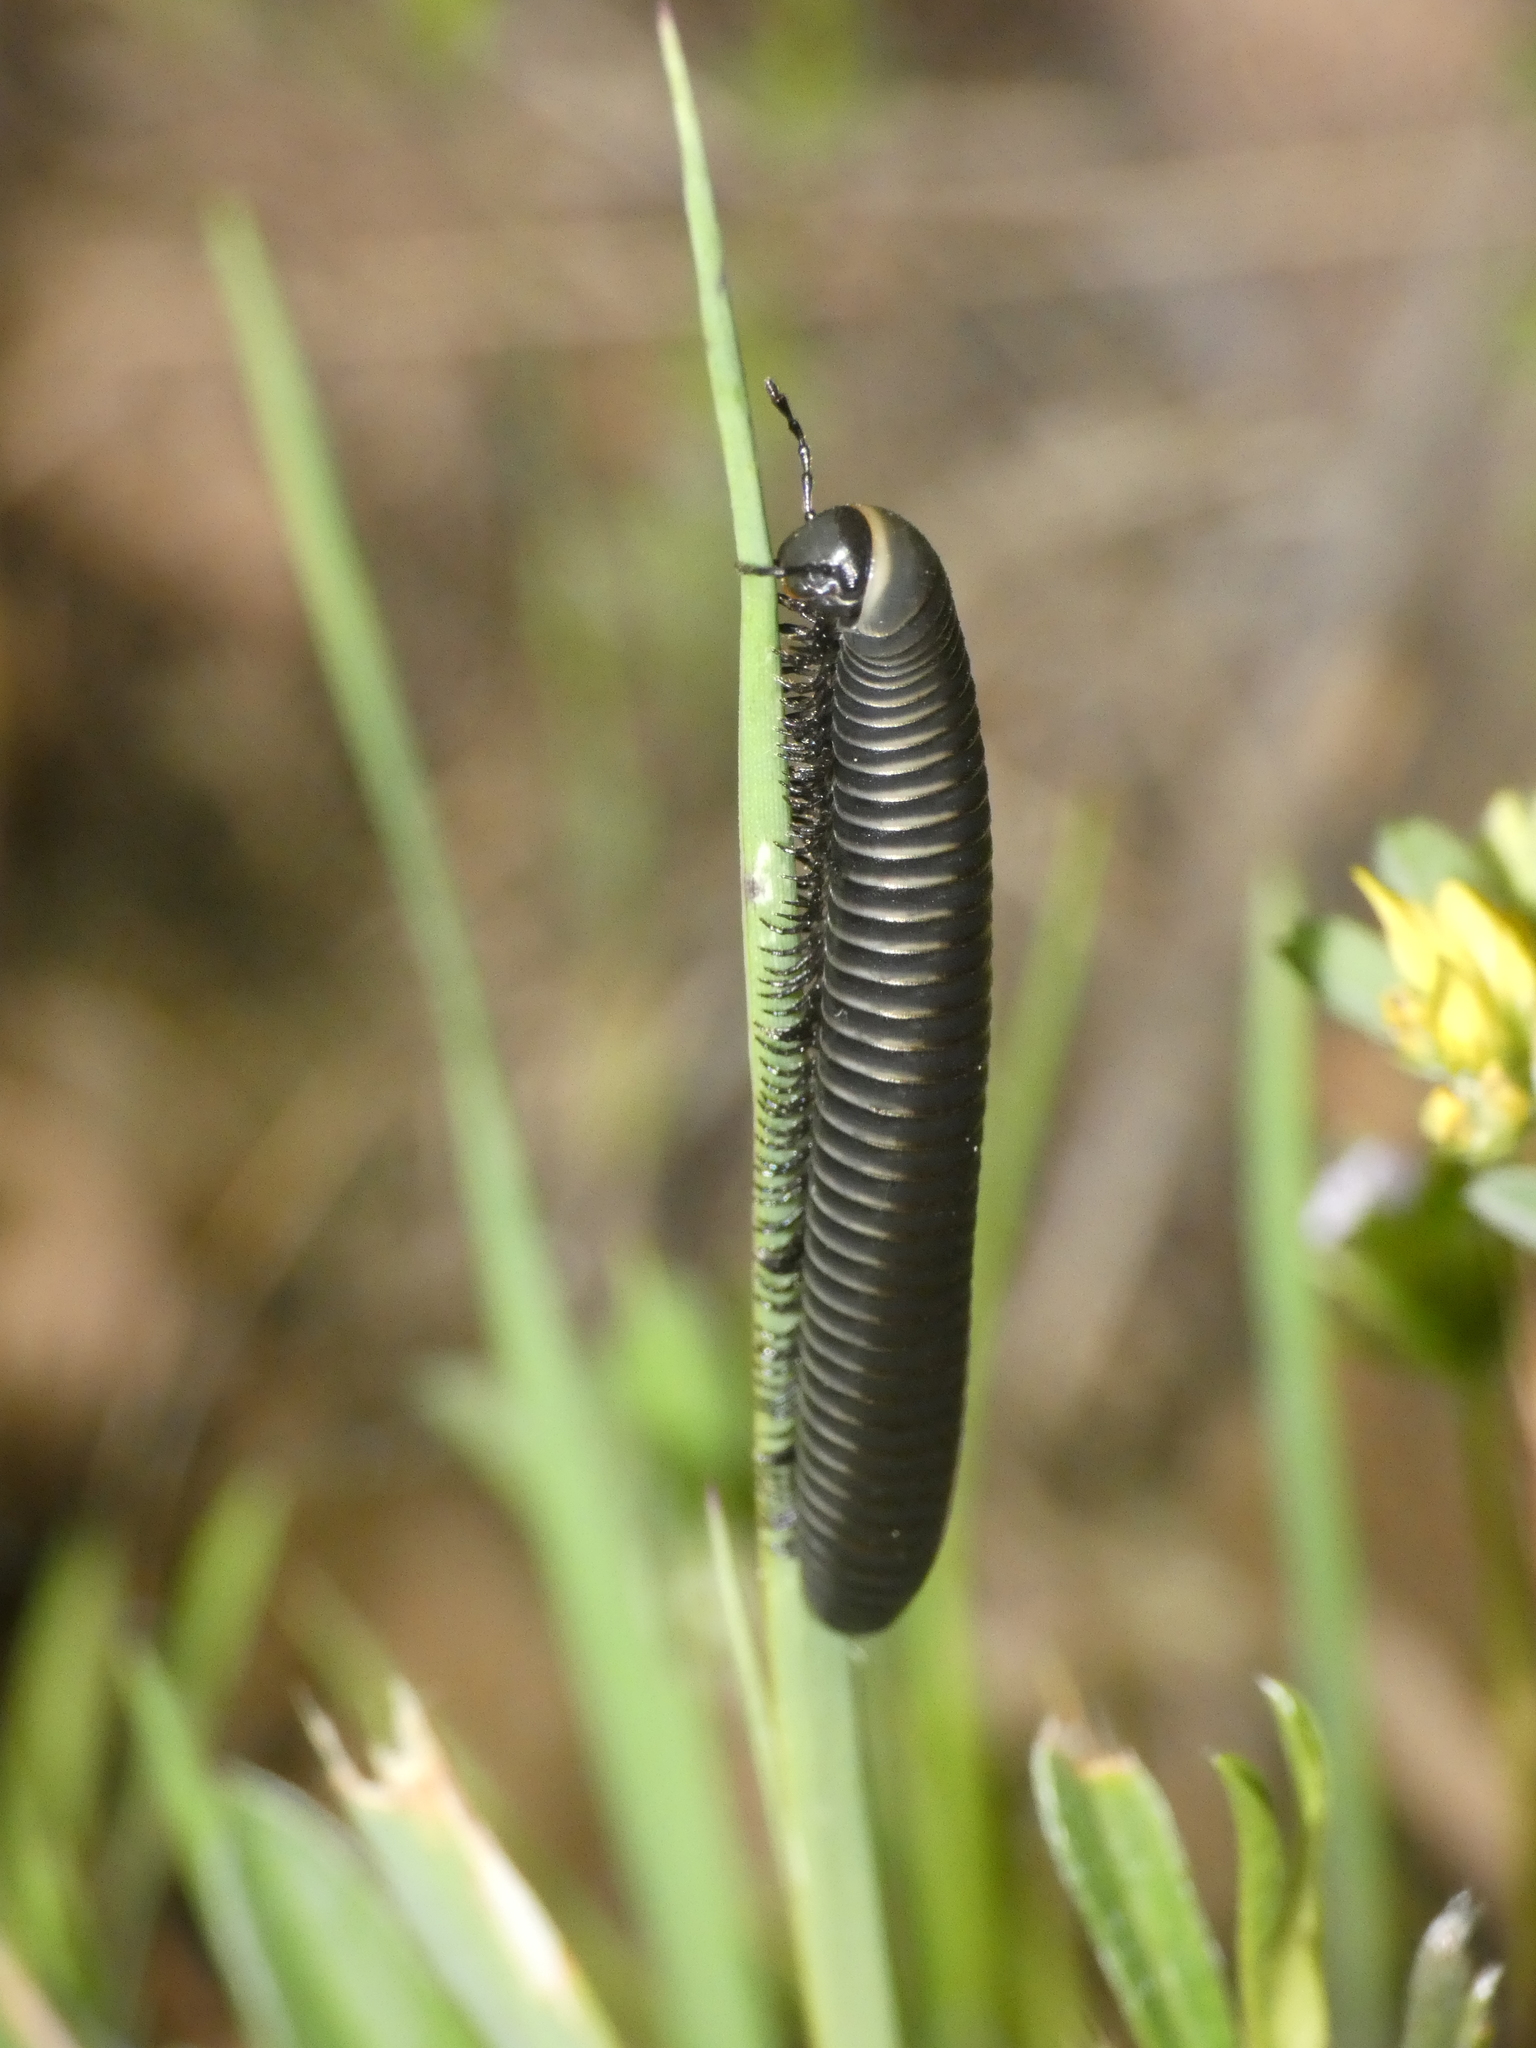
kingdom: Animalia
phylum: Arthropoda
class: Diplopoda
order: Julida
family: Julidae
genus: Ommatoiulus
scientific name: Ommatoiulus rutilans
